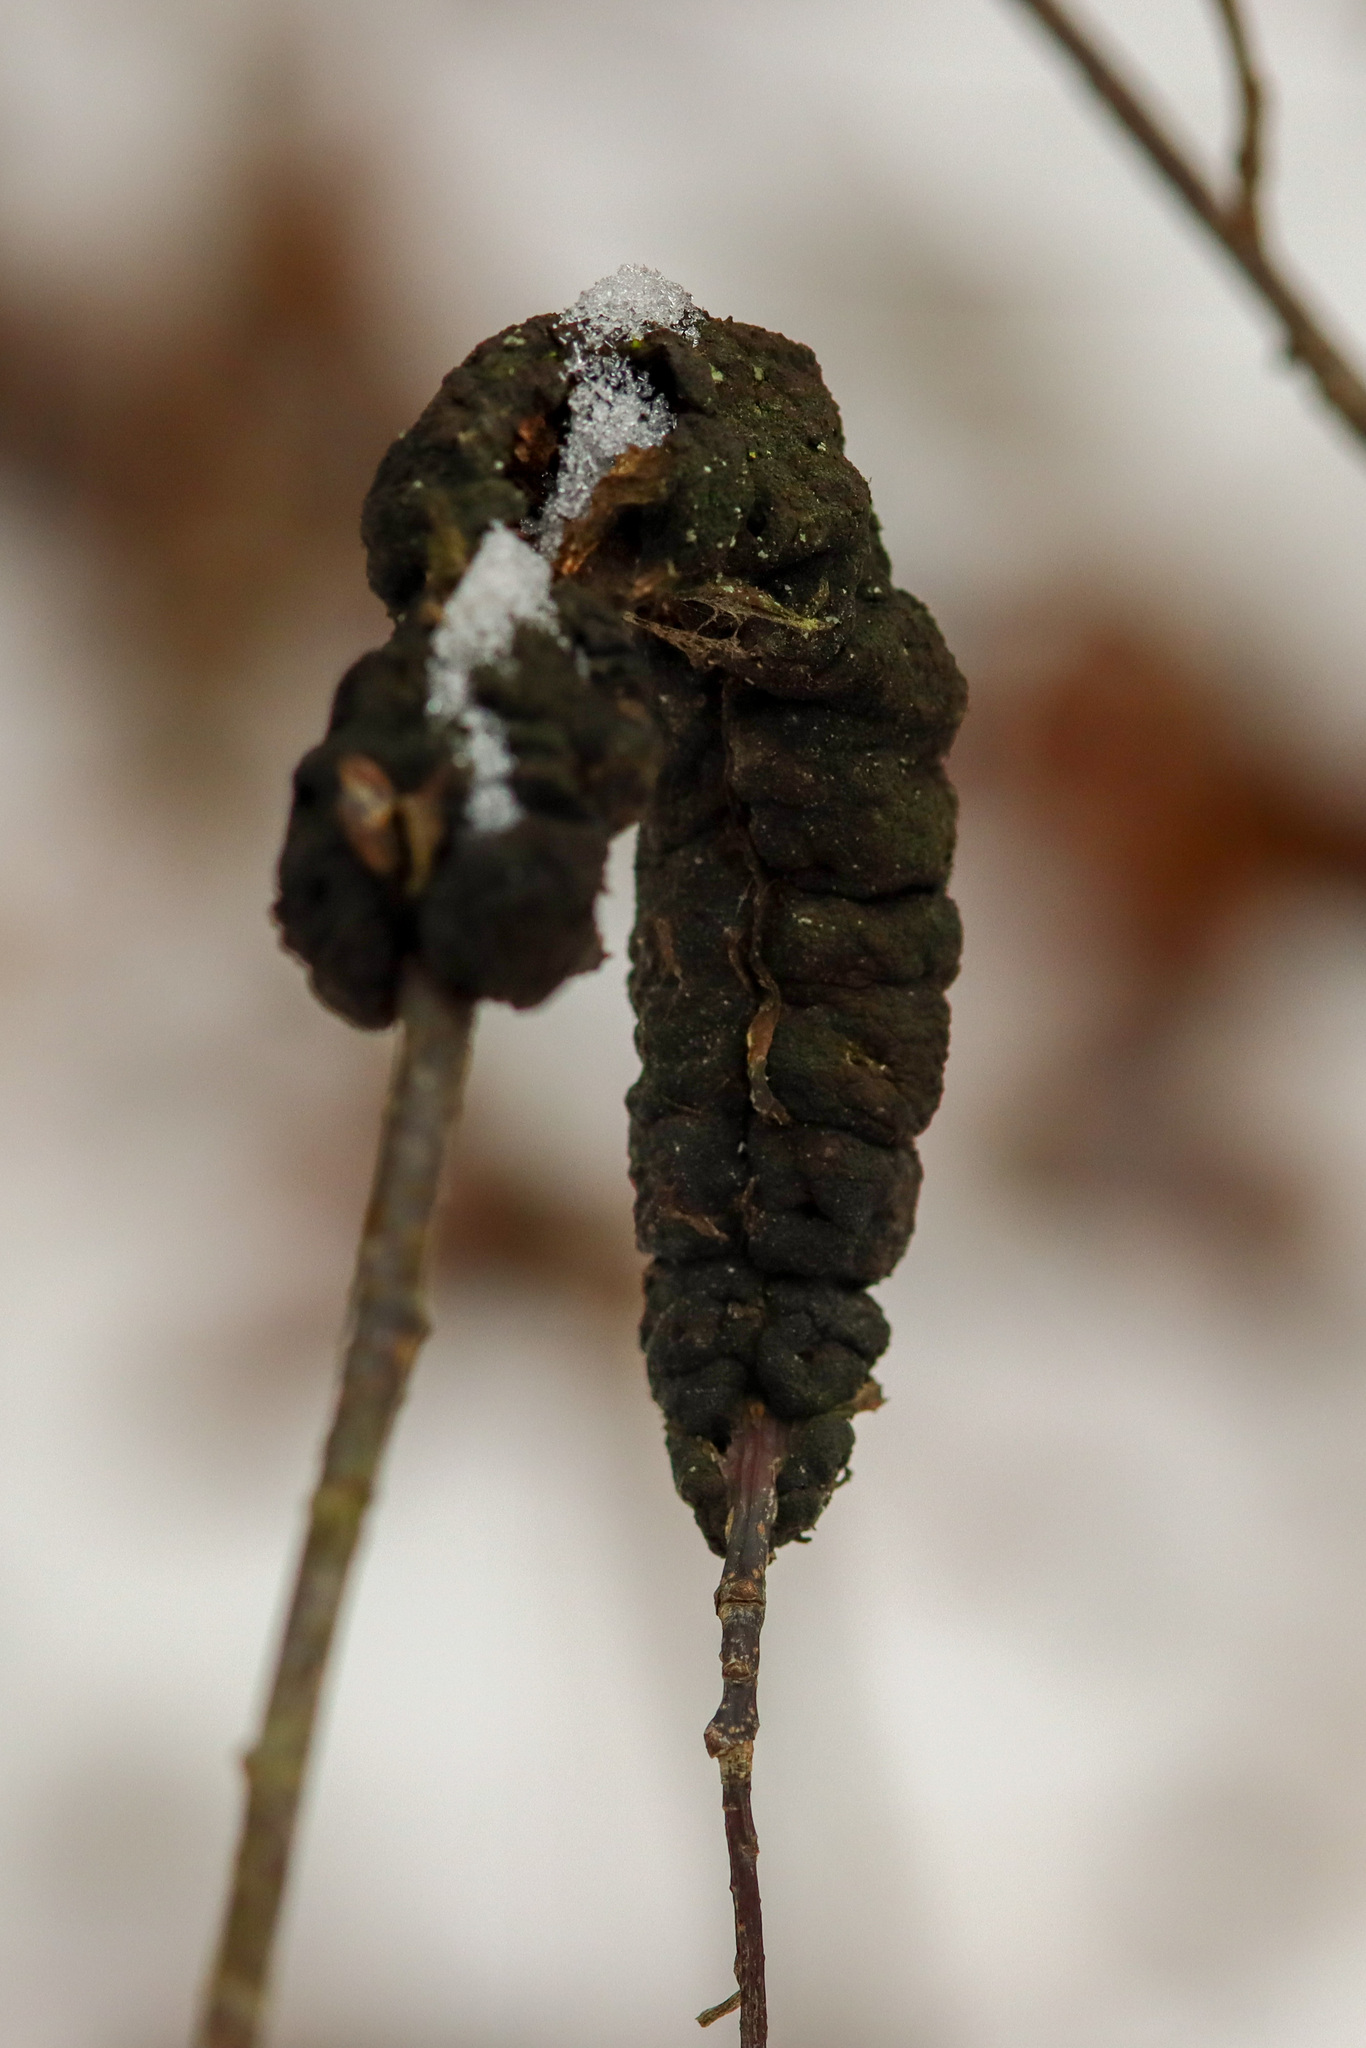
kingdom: Fungi
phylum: Ascomycota
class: Dothideomycetes
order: Venturiales
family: Venturiaceae
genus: Apiosporina
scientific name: Apiosporina morbosa
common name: Black knot
